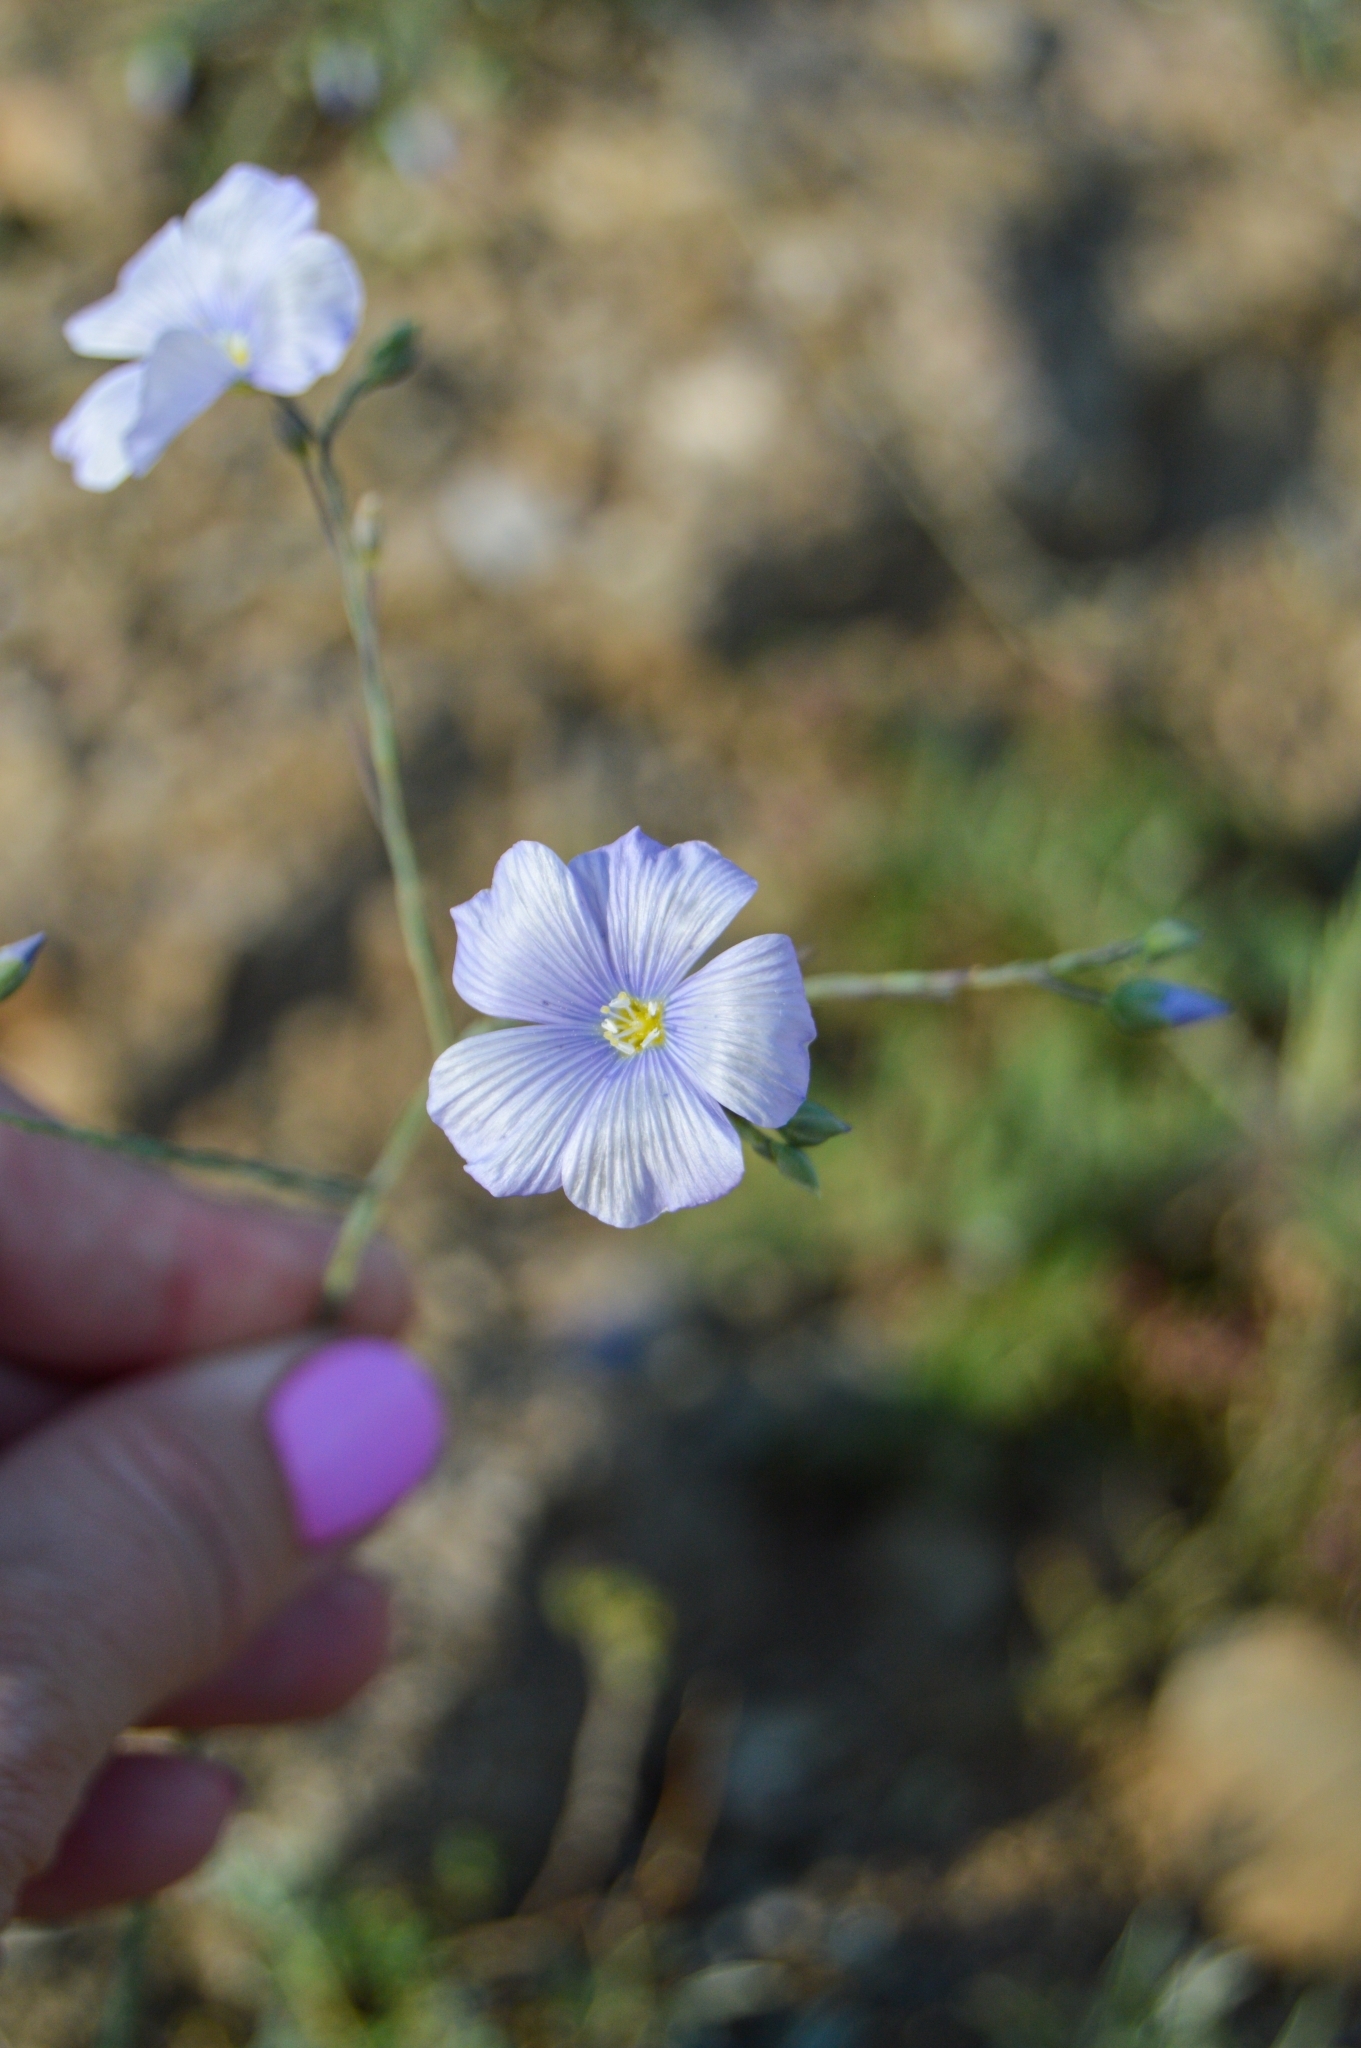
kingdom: Plantae
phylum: Tracheophyta
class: Magnoliopsida
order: Malpighiales
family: Linaceae
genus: Linum
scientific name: Linum austriacum
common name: Austrian flax
